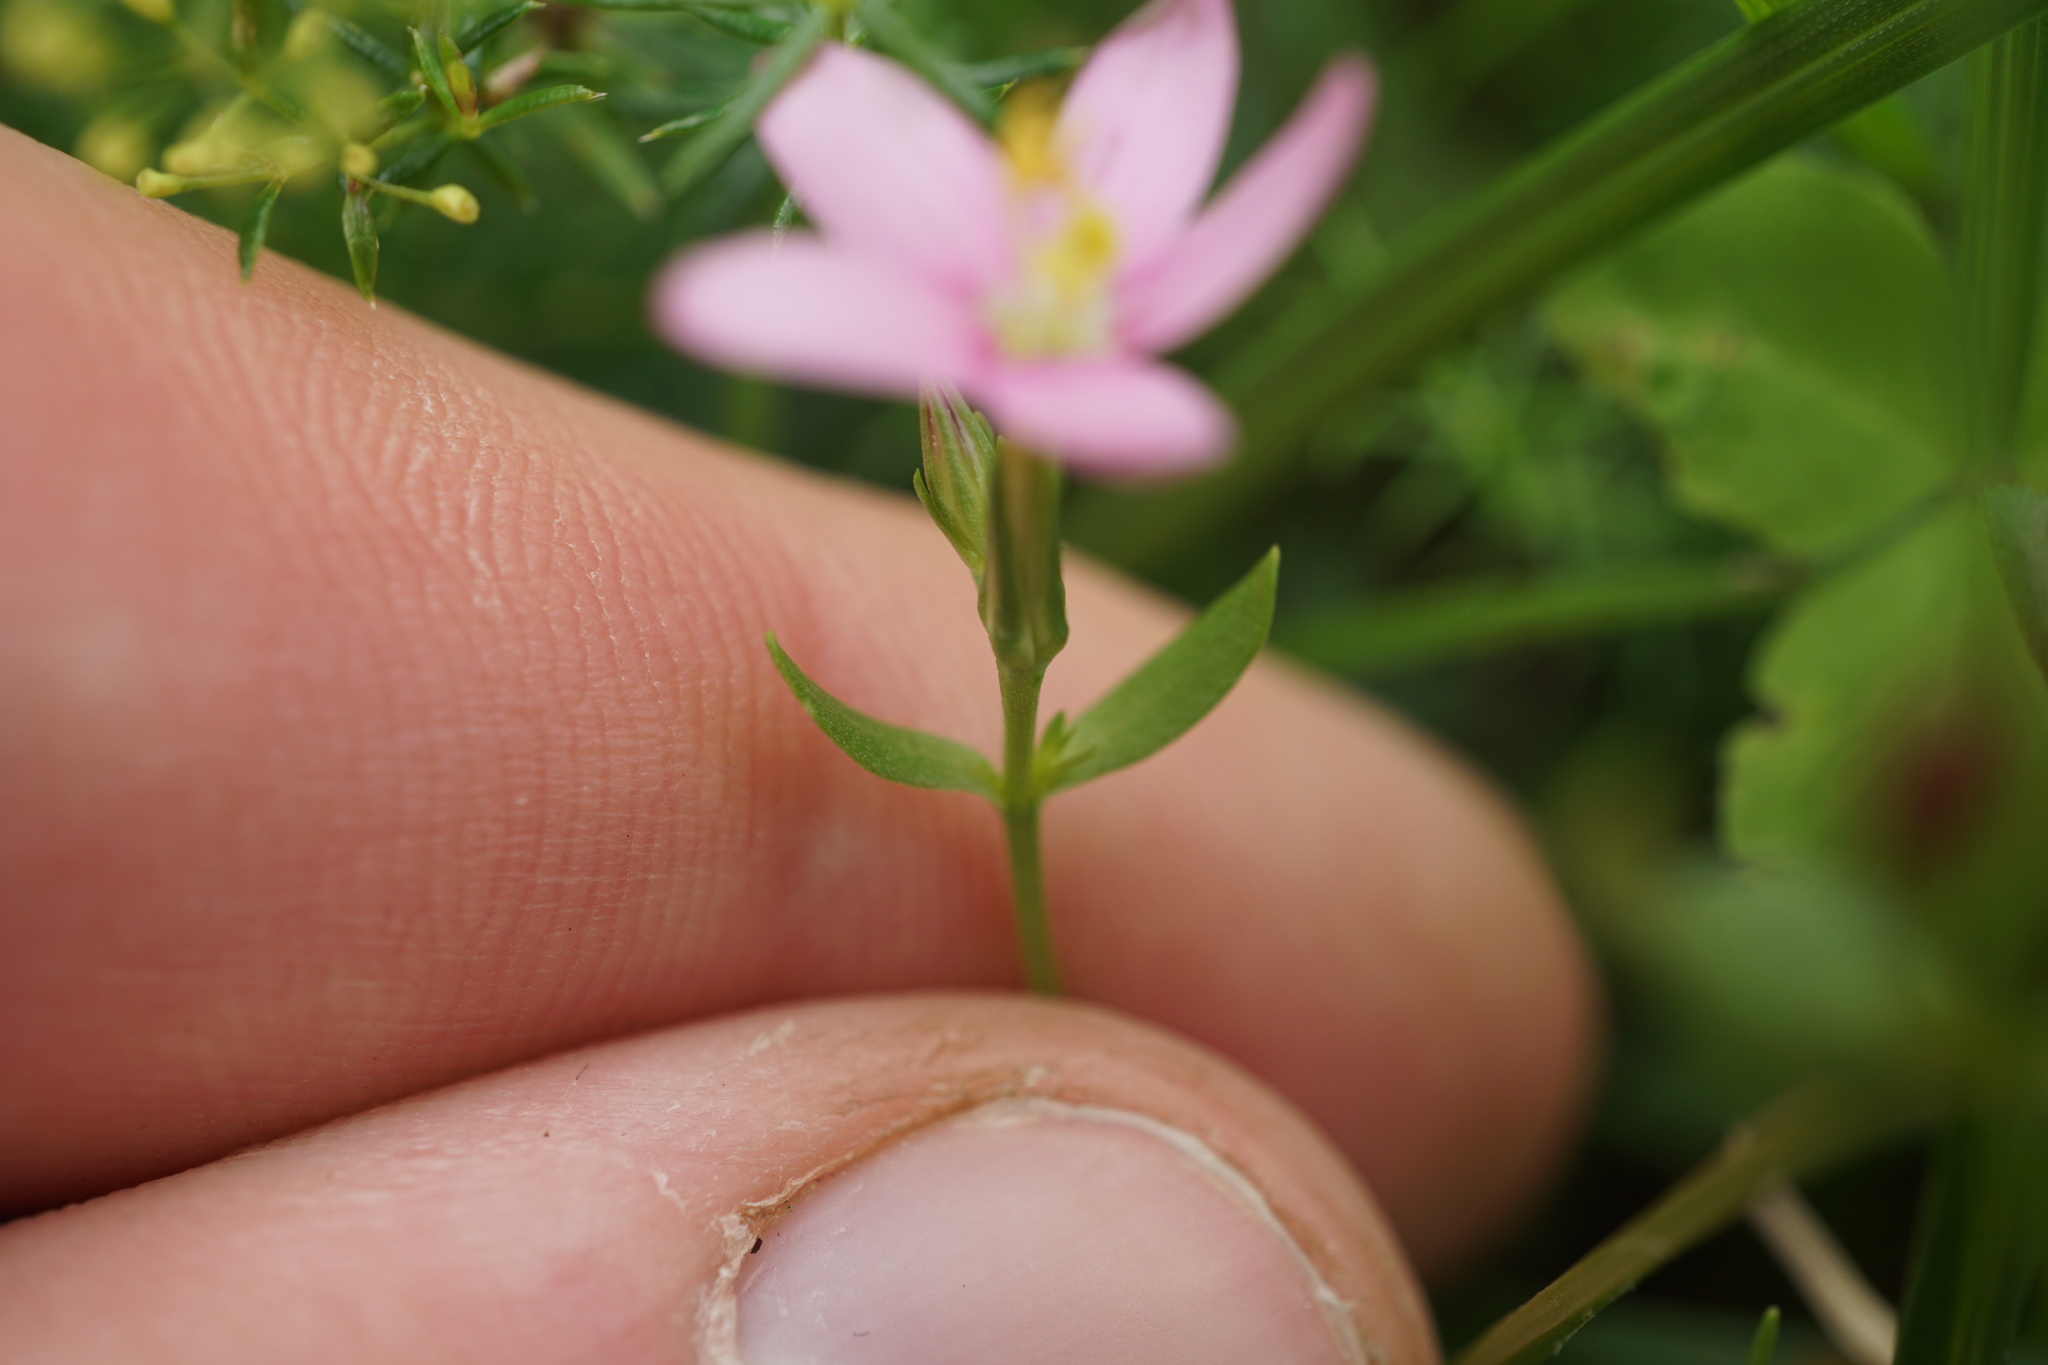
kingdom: Plantae
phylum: Tracheophyta
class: Magnoliopsida
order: Gentianales
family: Gentianaceae
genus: Centaurium
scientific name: Centaurium erythraea
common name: Common centaury
